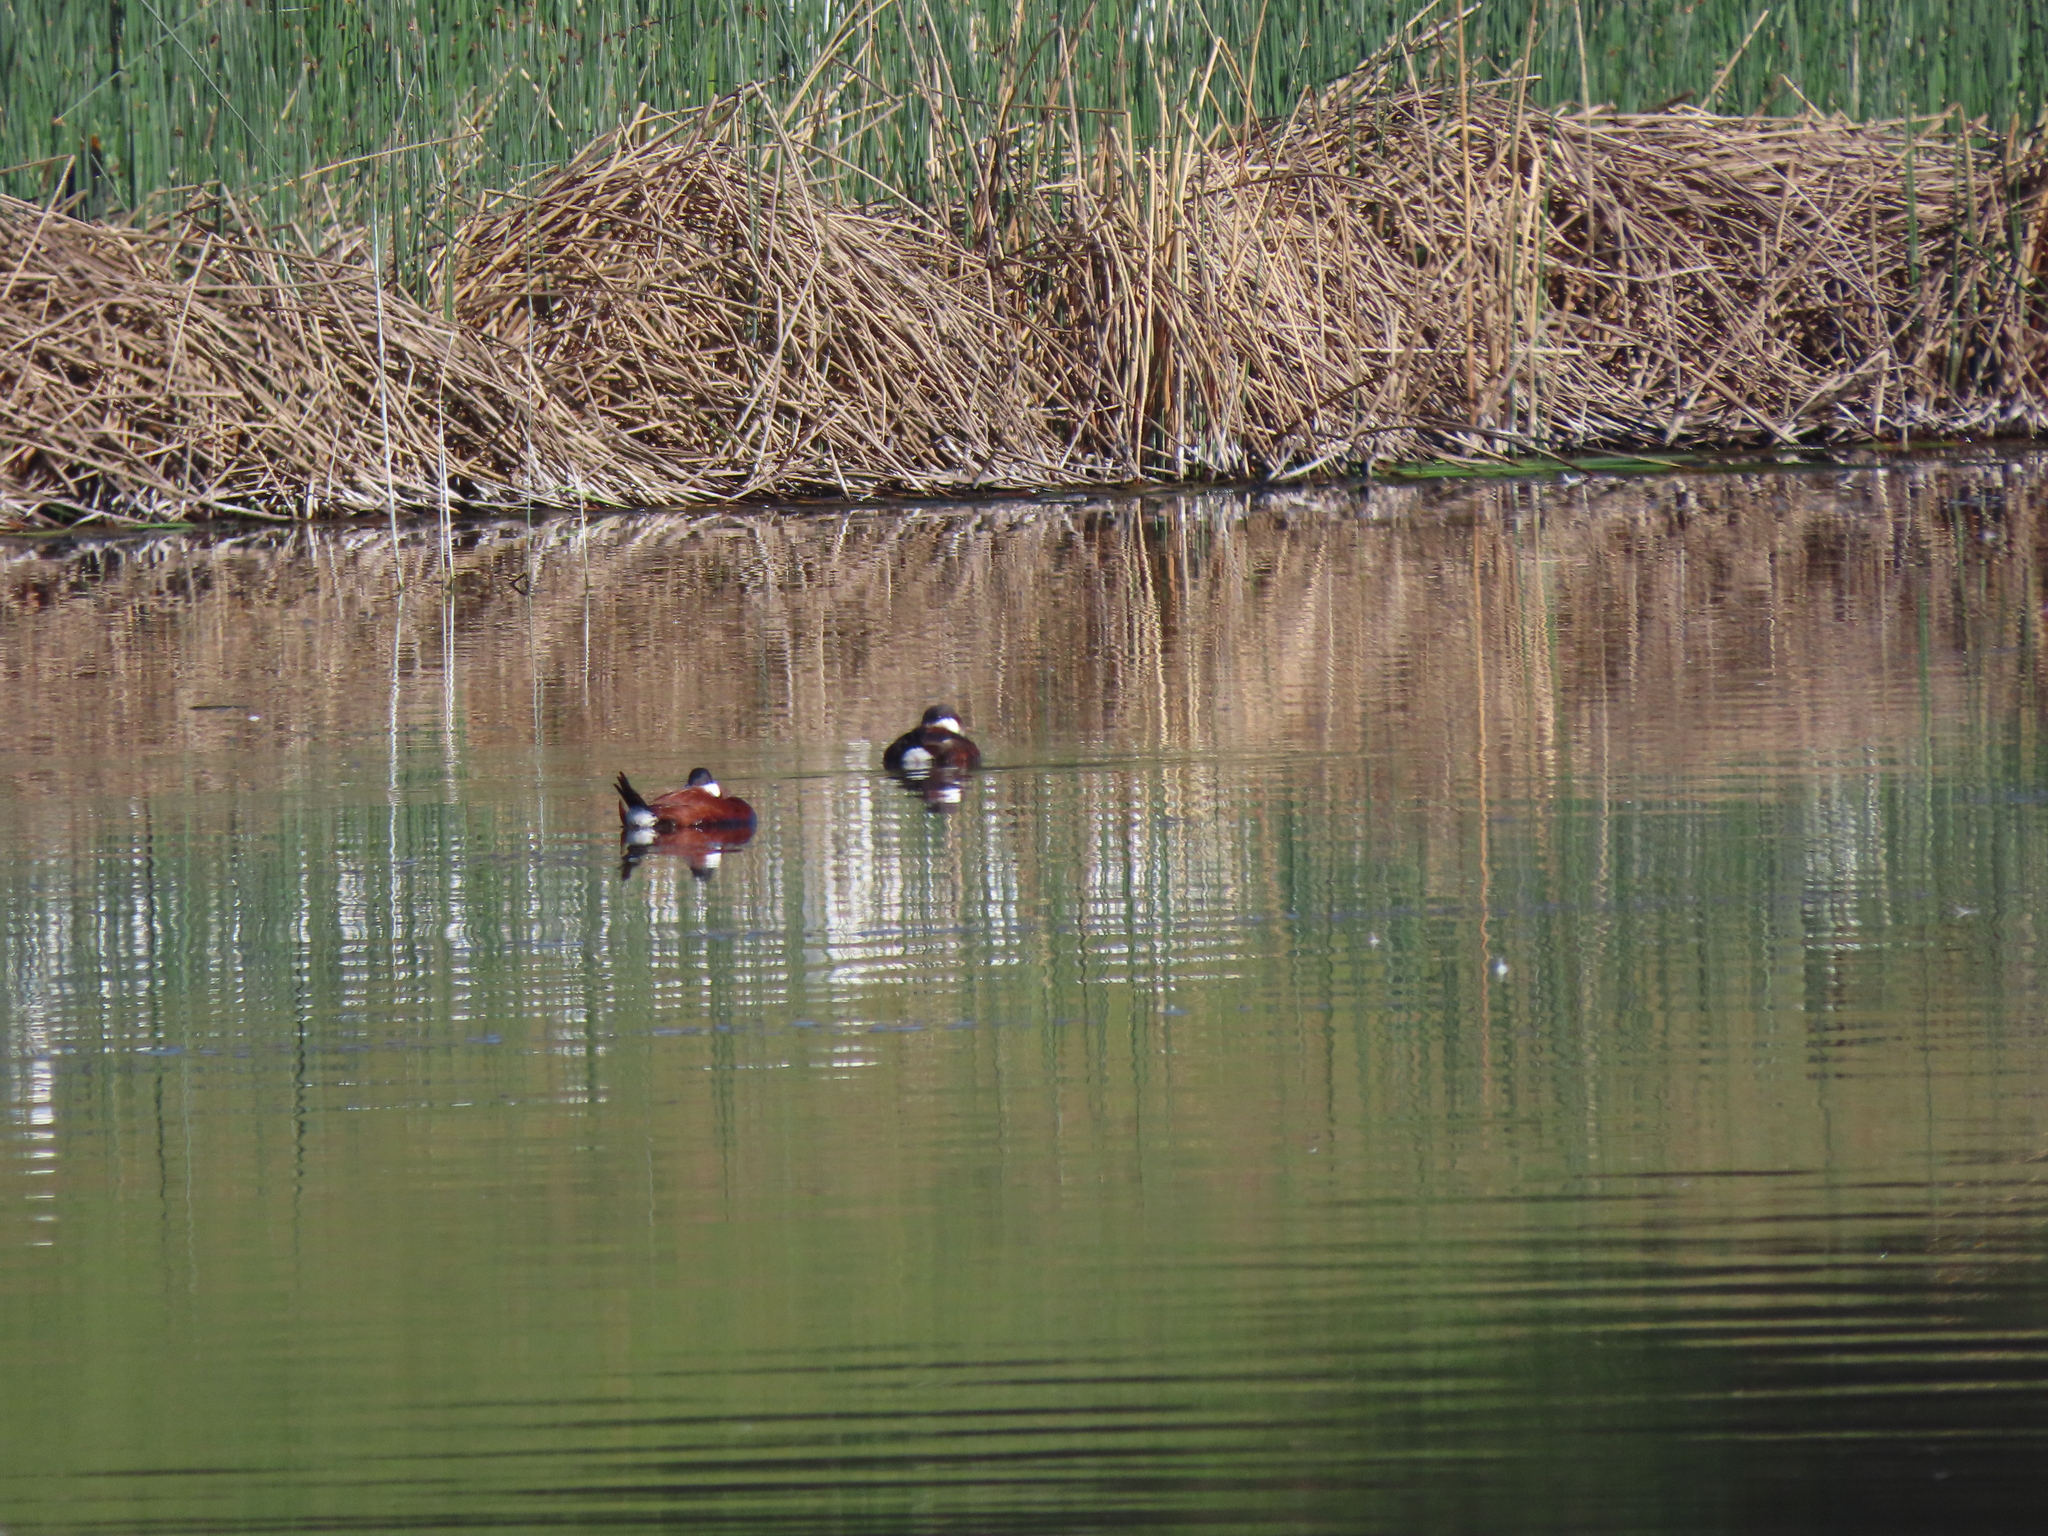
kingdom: Animalia
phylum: Chordata
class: Aves
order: Anseriformes
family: Anatidae
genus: Oxyura
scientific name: Oxyura jamaicensis
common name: Ruddy duck
